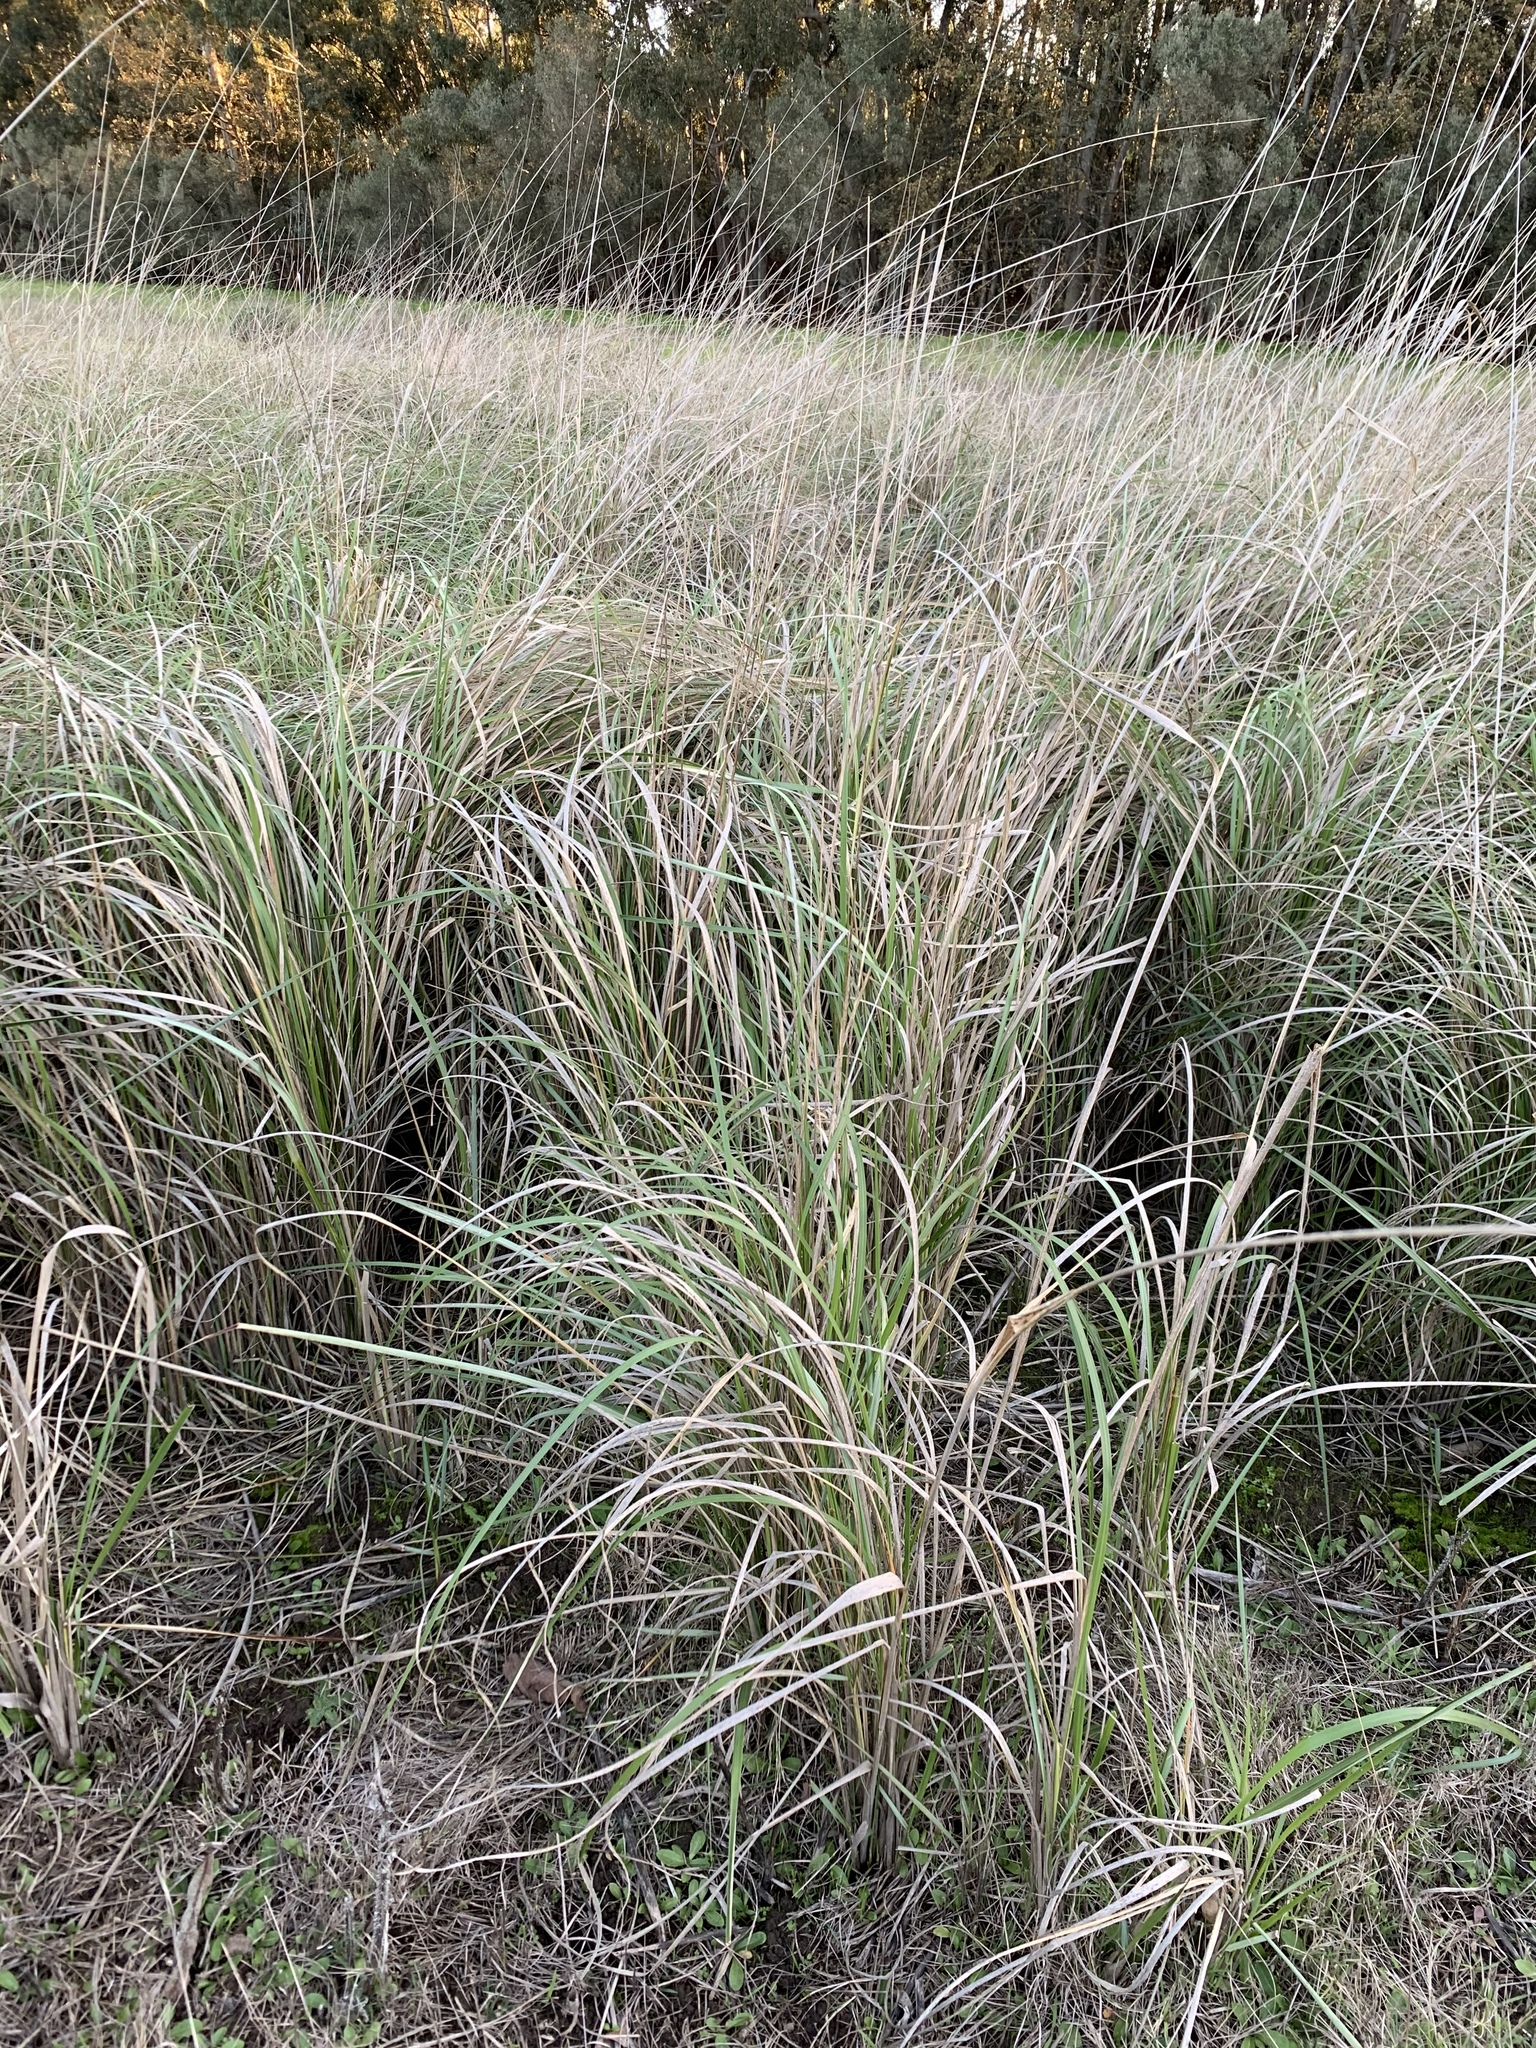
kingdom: Plantae
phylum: Tracheophyta
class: Liliopsida
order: Poales
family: Poaceae
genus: Cenchrus
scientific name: Cenchrus caudatus
